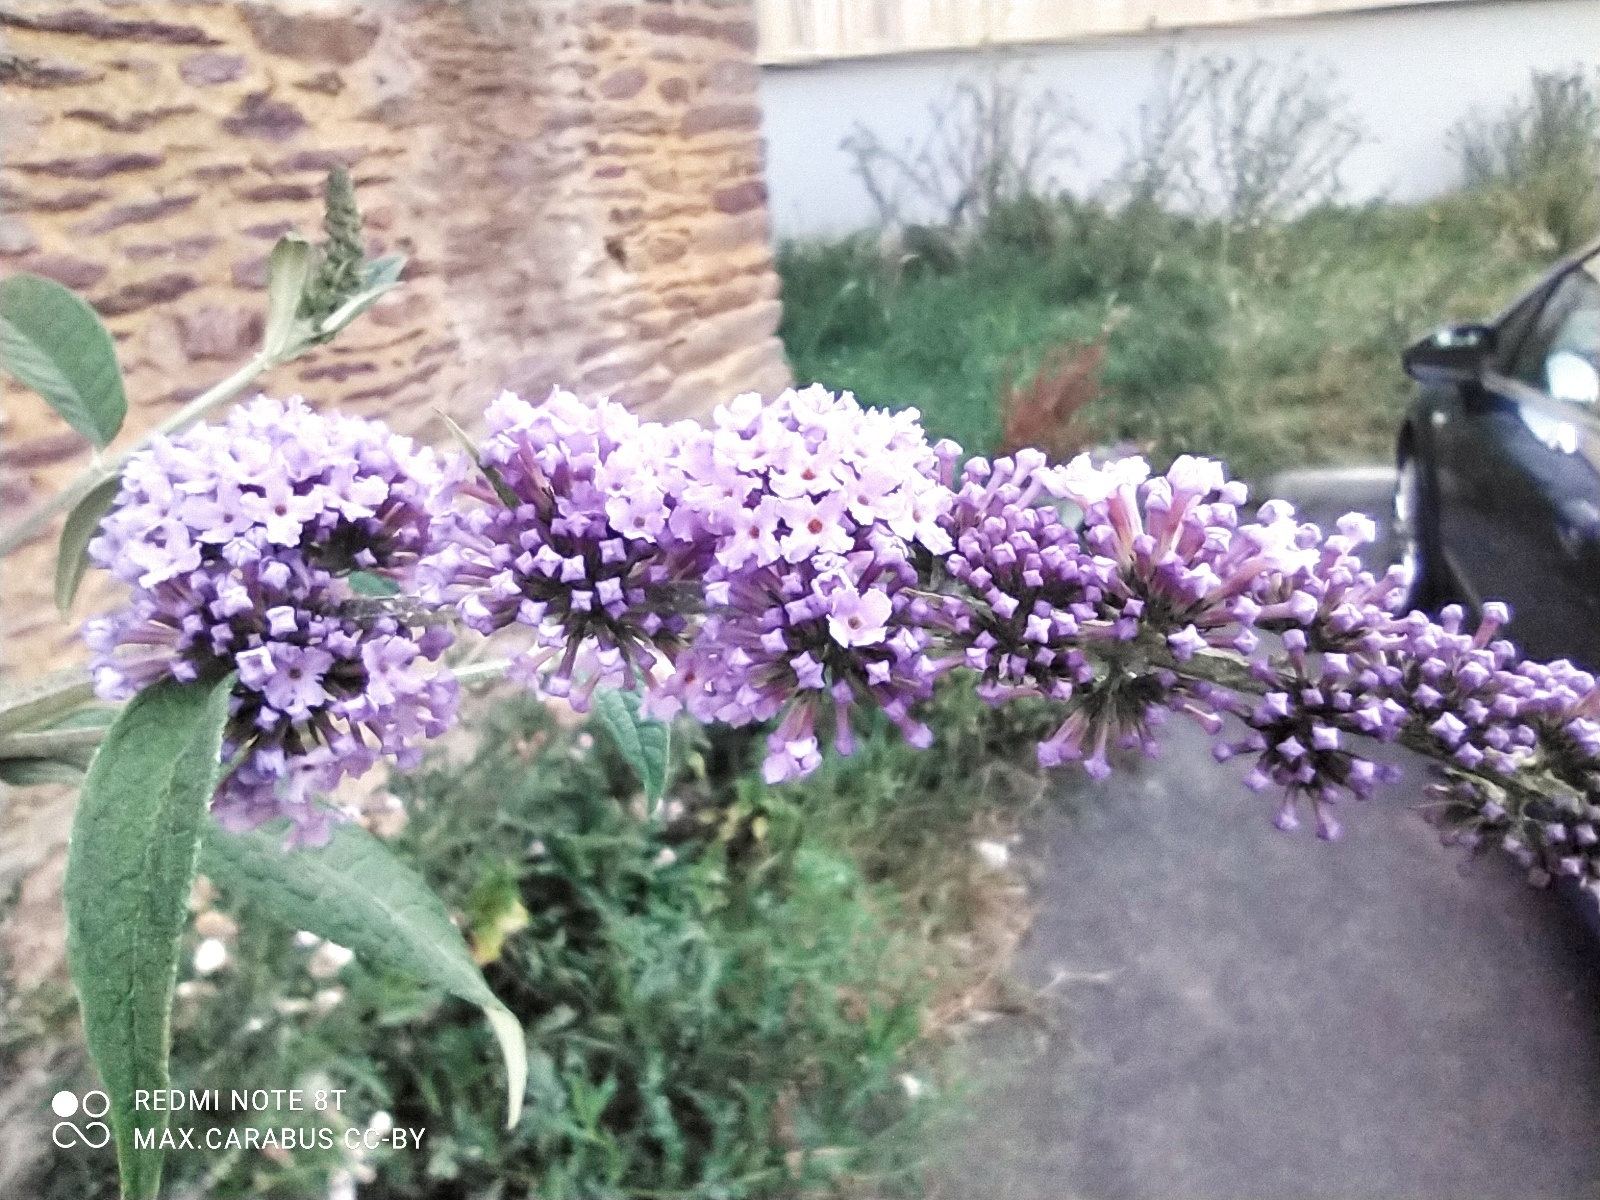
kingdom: Plantae
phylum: Tracheophyta
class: Magnoliopsida
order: Lamiales
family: Scrophulariaceae
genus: Buddleja
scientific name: Buddleja davidii
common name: Butterfly-bush
